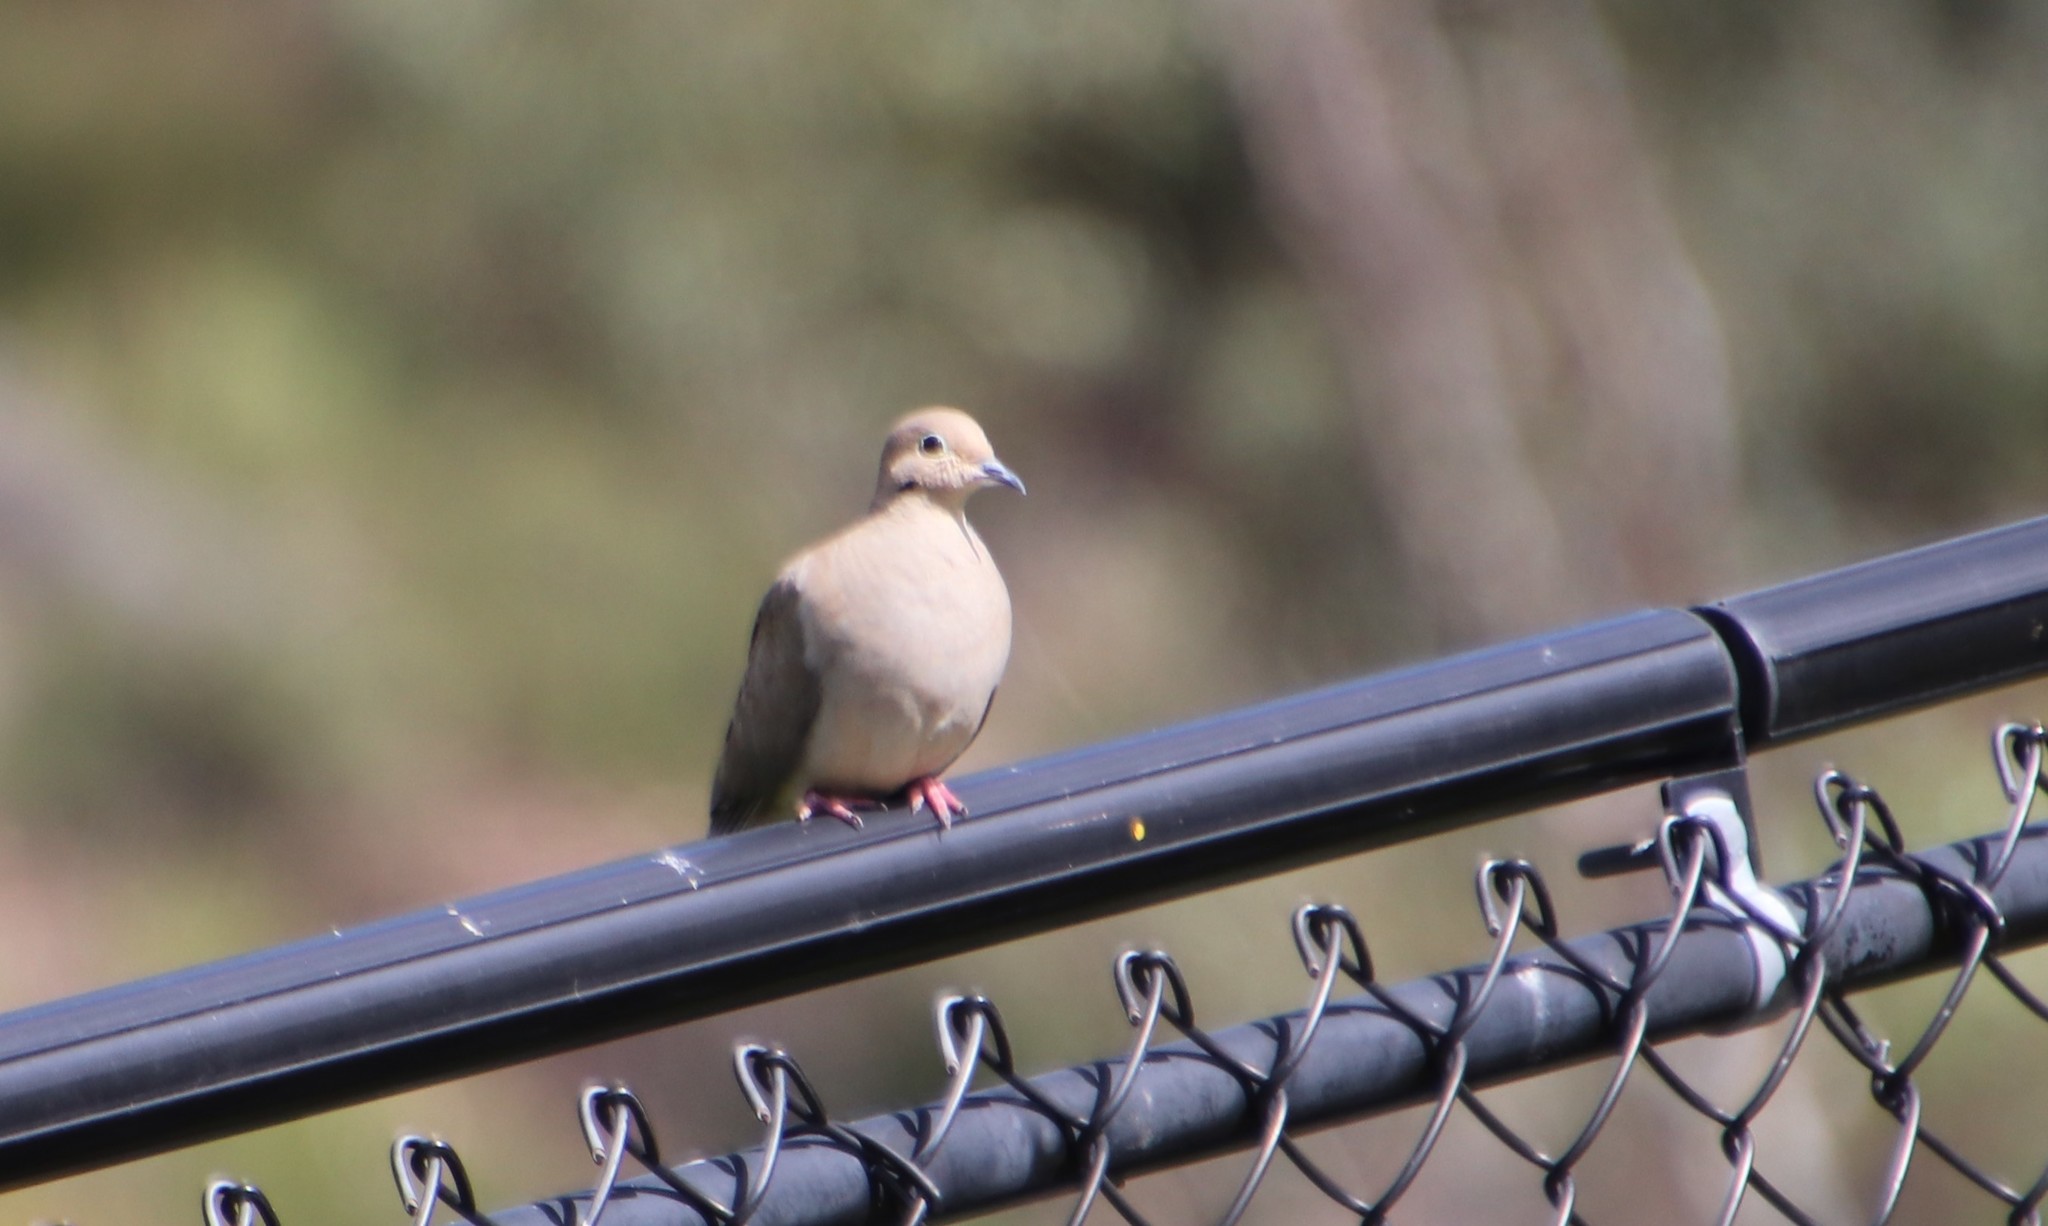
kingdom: Animalia
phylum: Chordata
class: Aves
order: Columbiformes
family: Columbidae
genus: Zenaida
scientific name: Zenaida macroura
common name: Mourning dove
